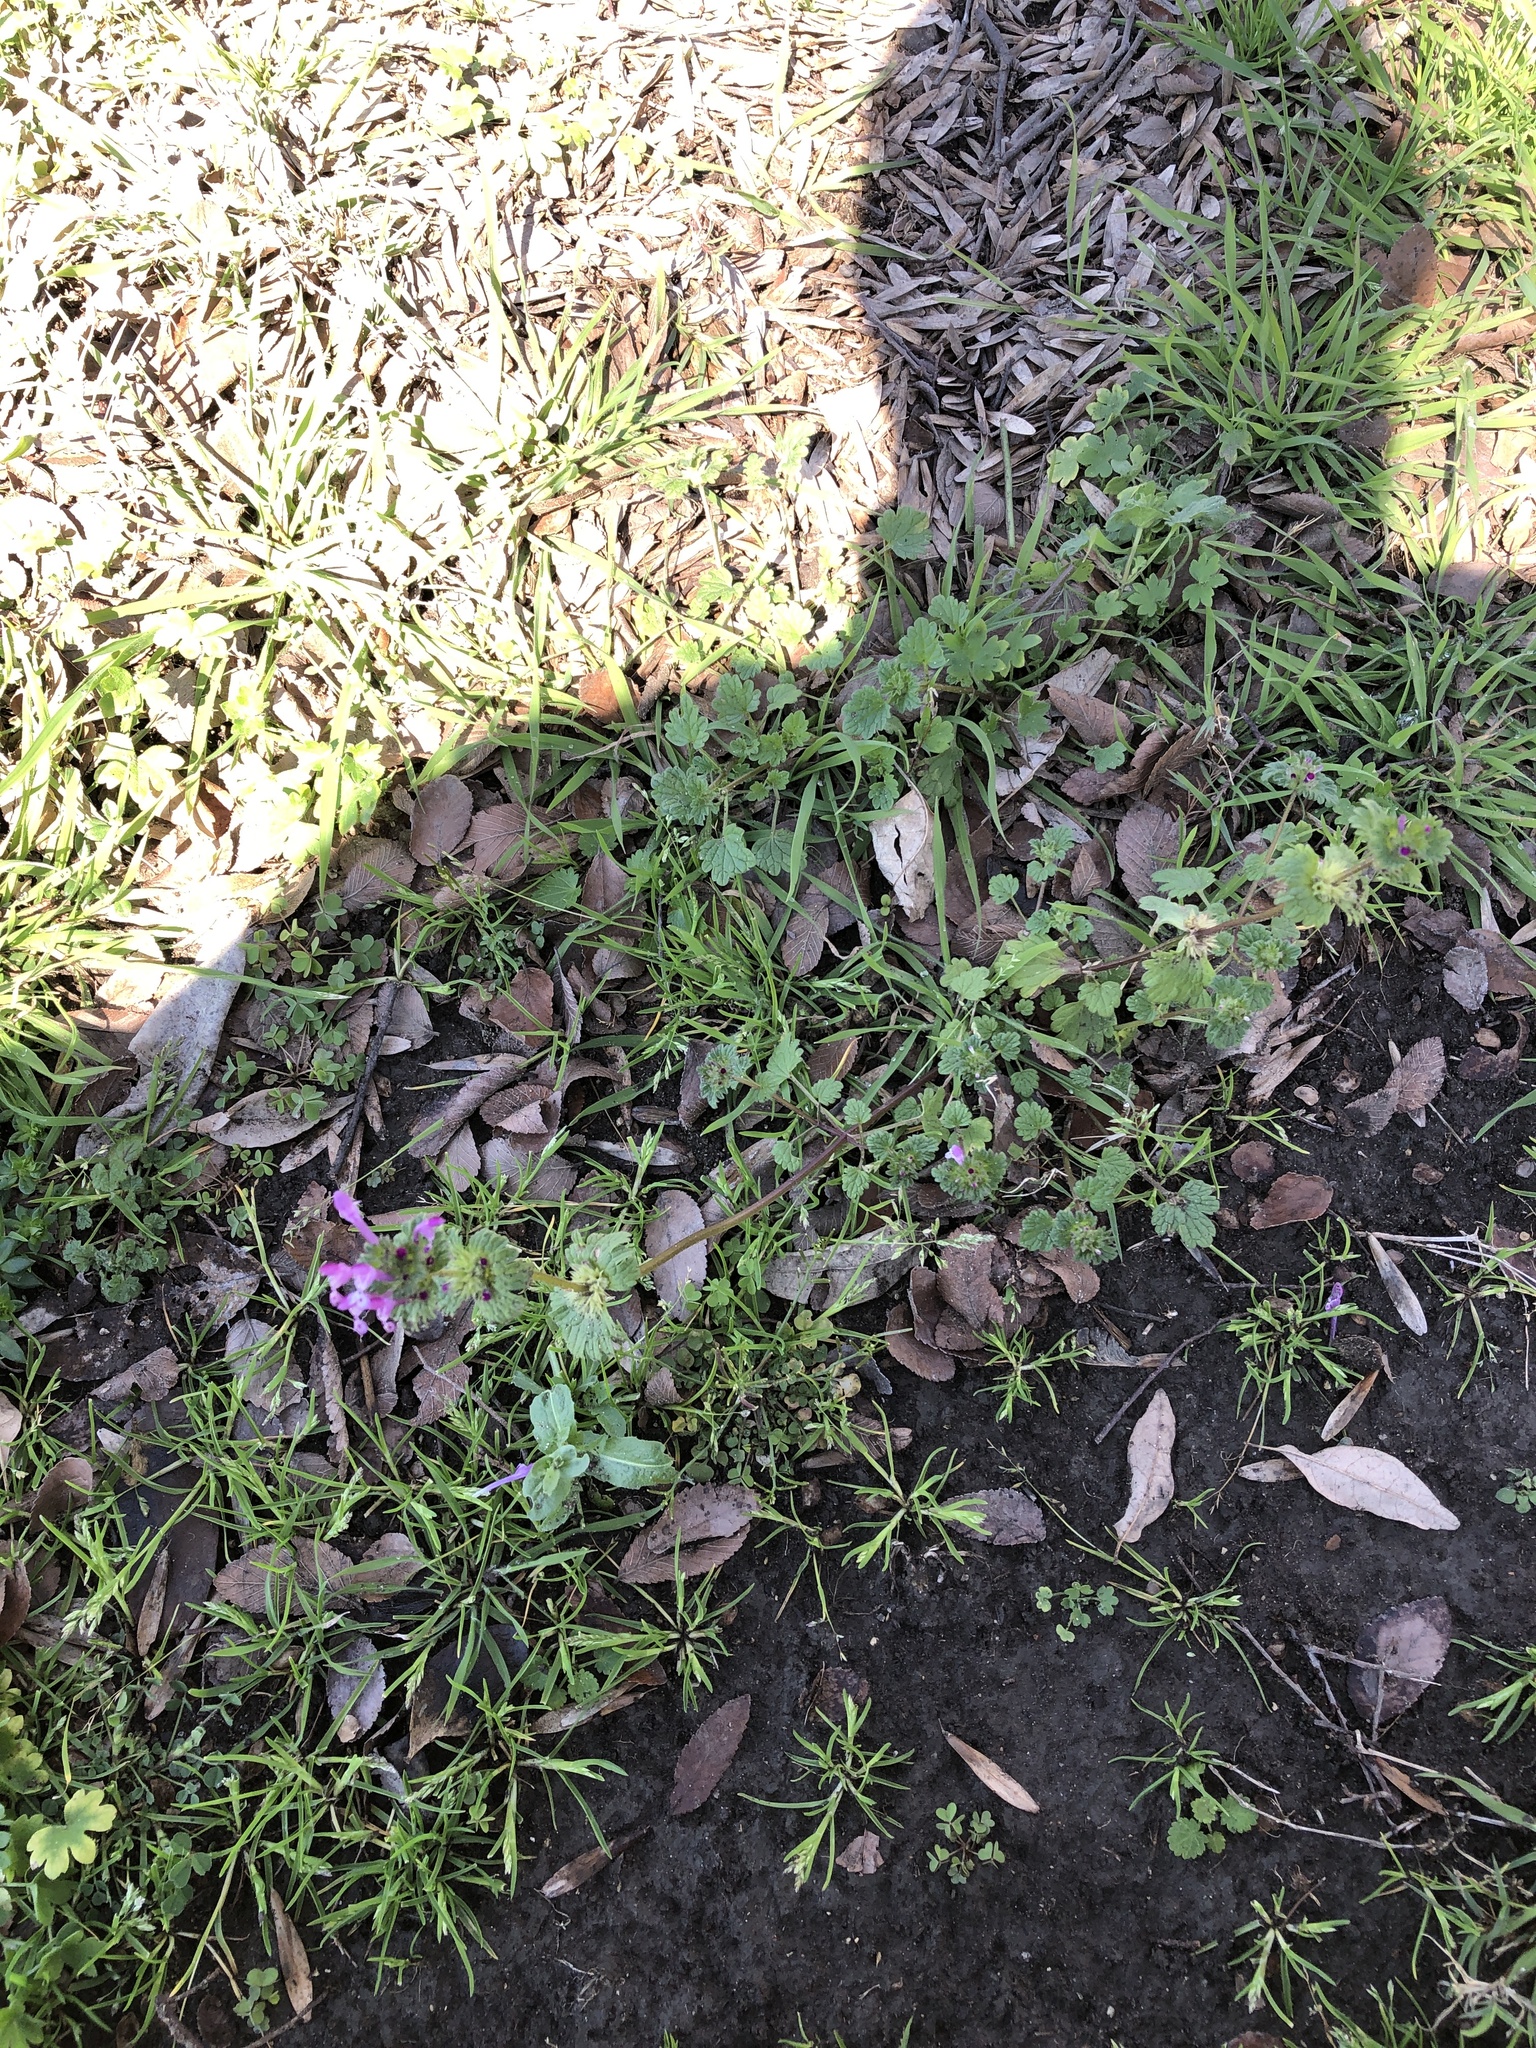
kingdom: Plantae
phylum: Tracheophyta
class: Magnoliopsida
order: Lamiales
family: Lamiaceae
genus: Lamium
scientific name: Lamium amplexicaule
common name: Henbit dead-nettle
